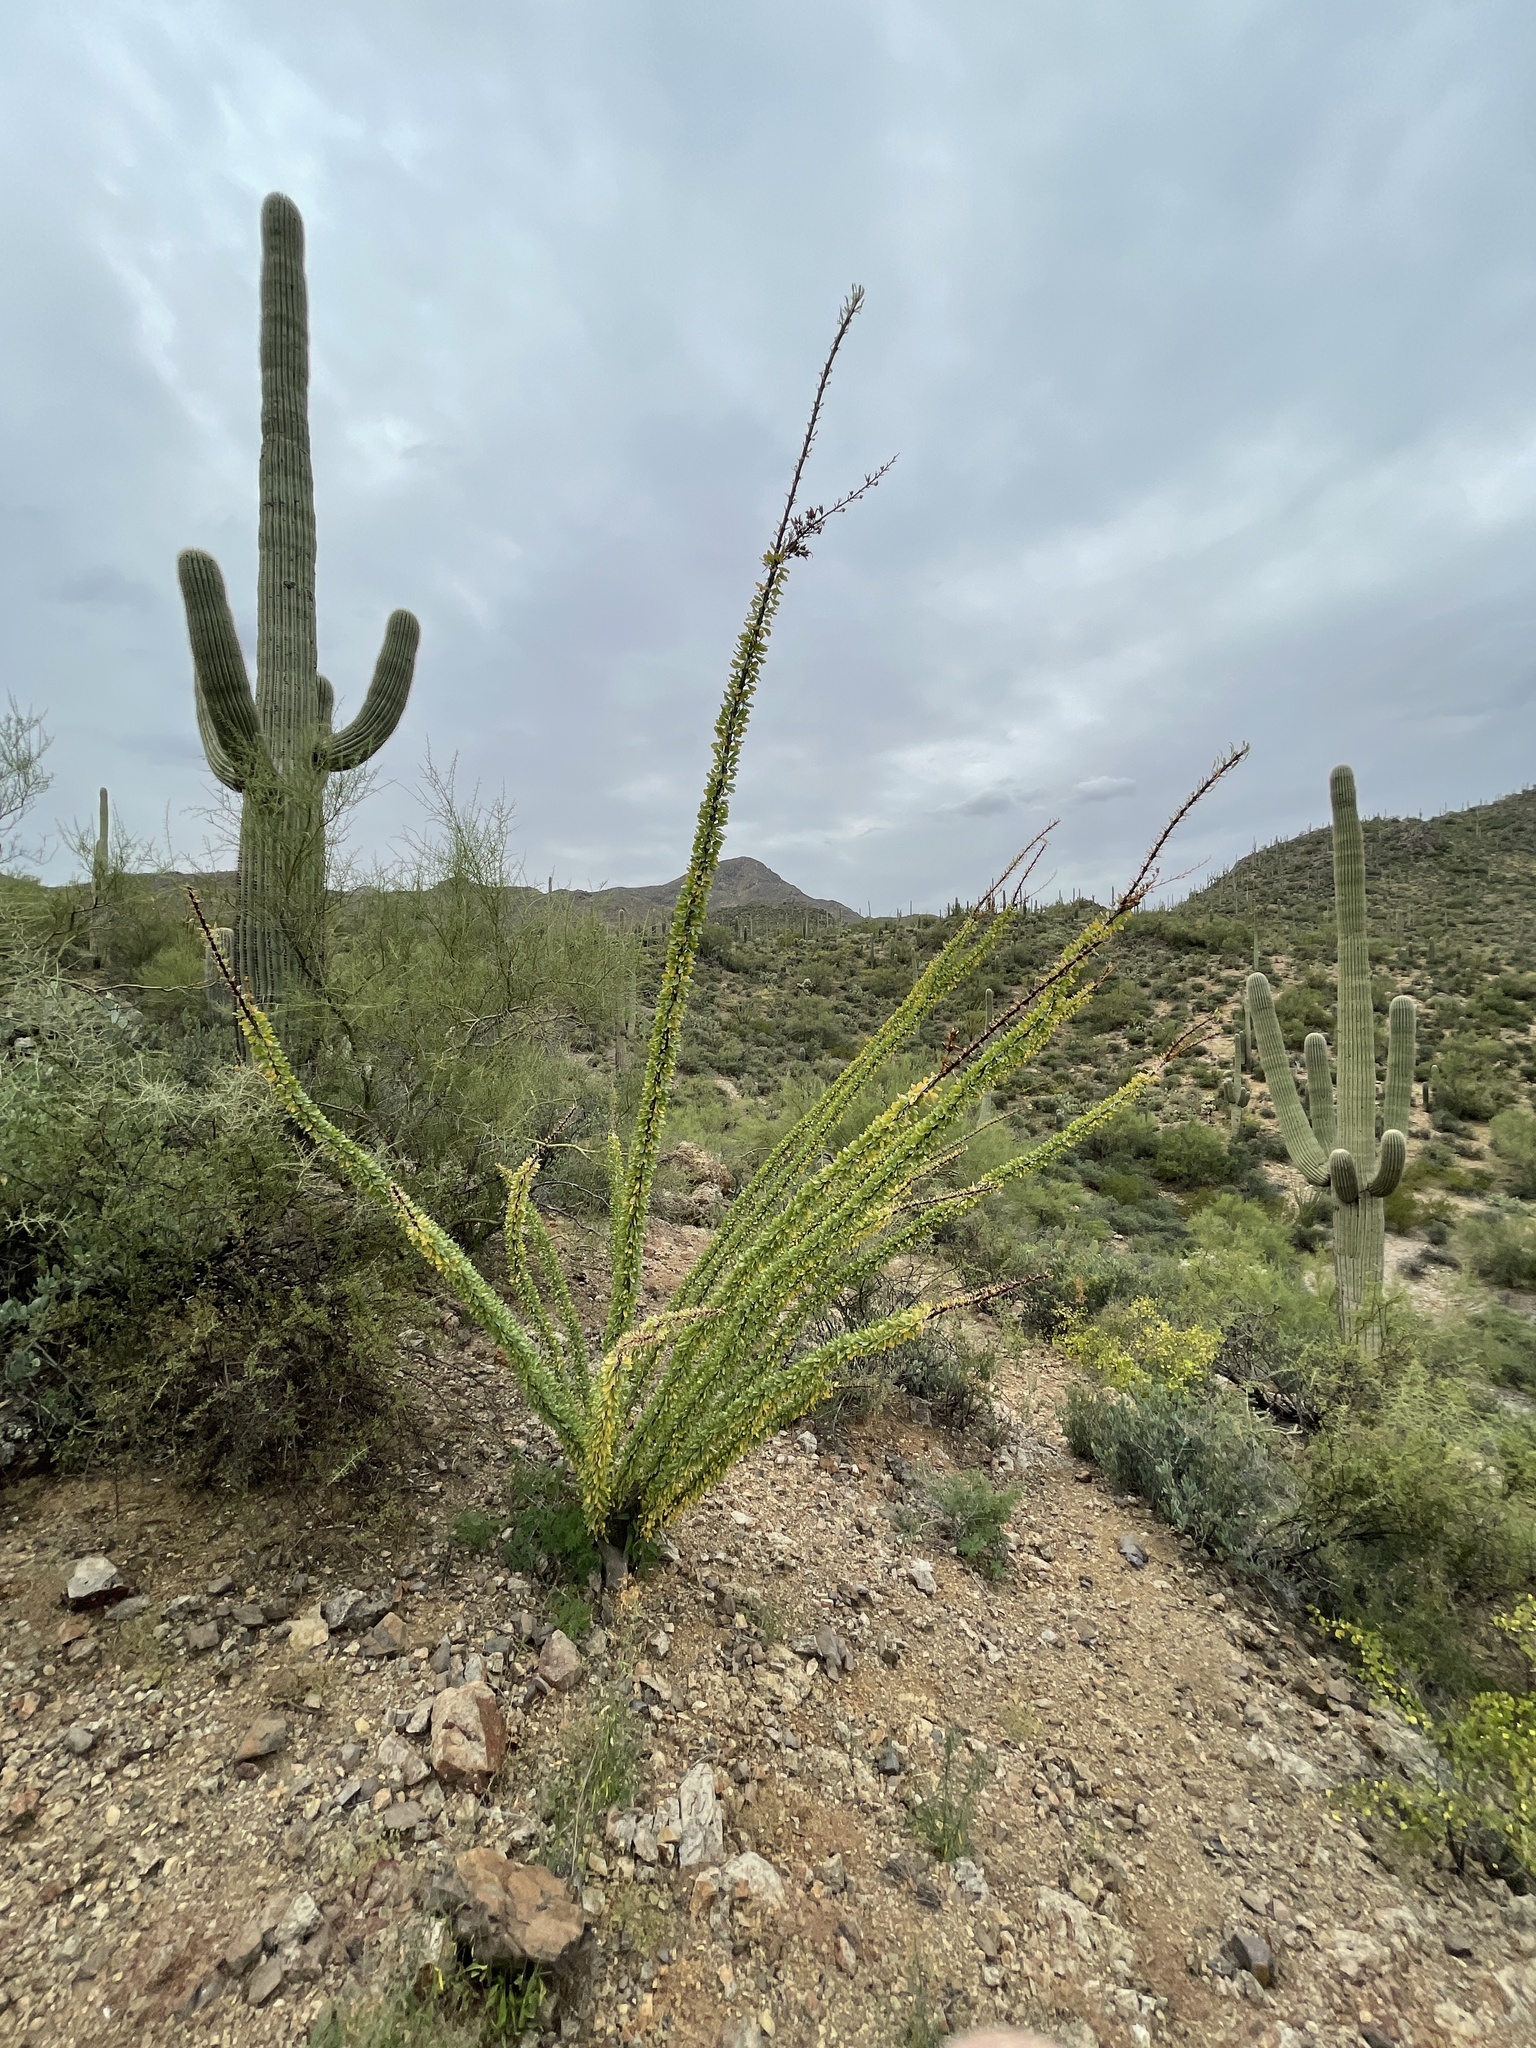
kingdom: Plantae
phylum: Tracheophyta
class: Magnoliopsida
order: Ericales
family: Fouquieriaceae
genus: Fouquieria
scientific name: Fouquieria splendens
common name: Vine-cactus
